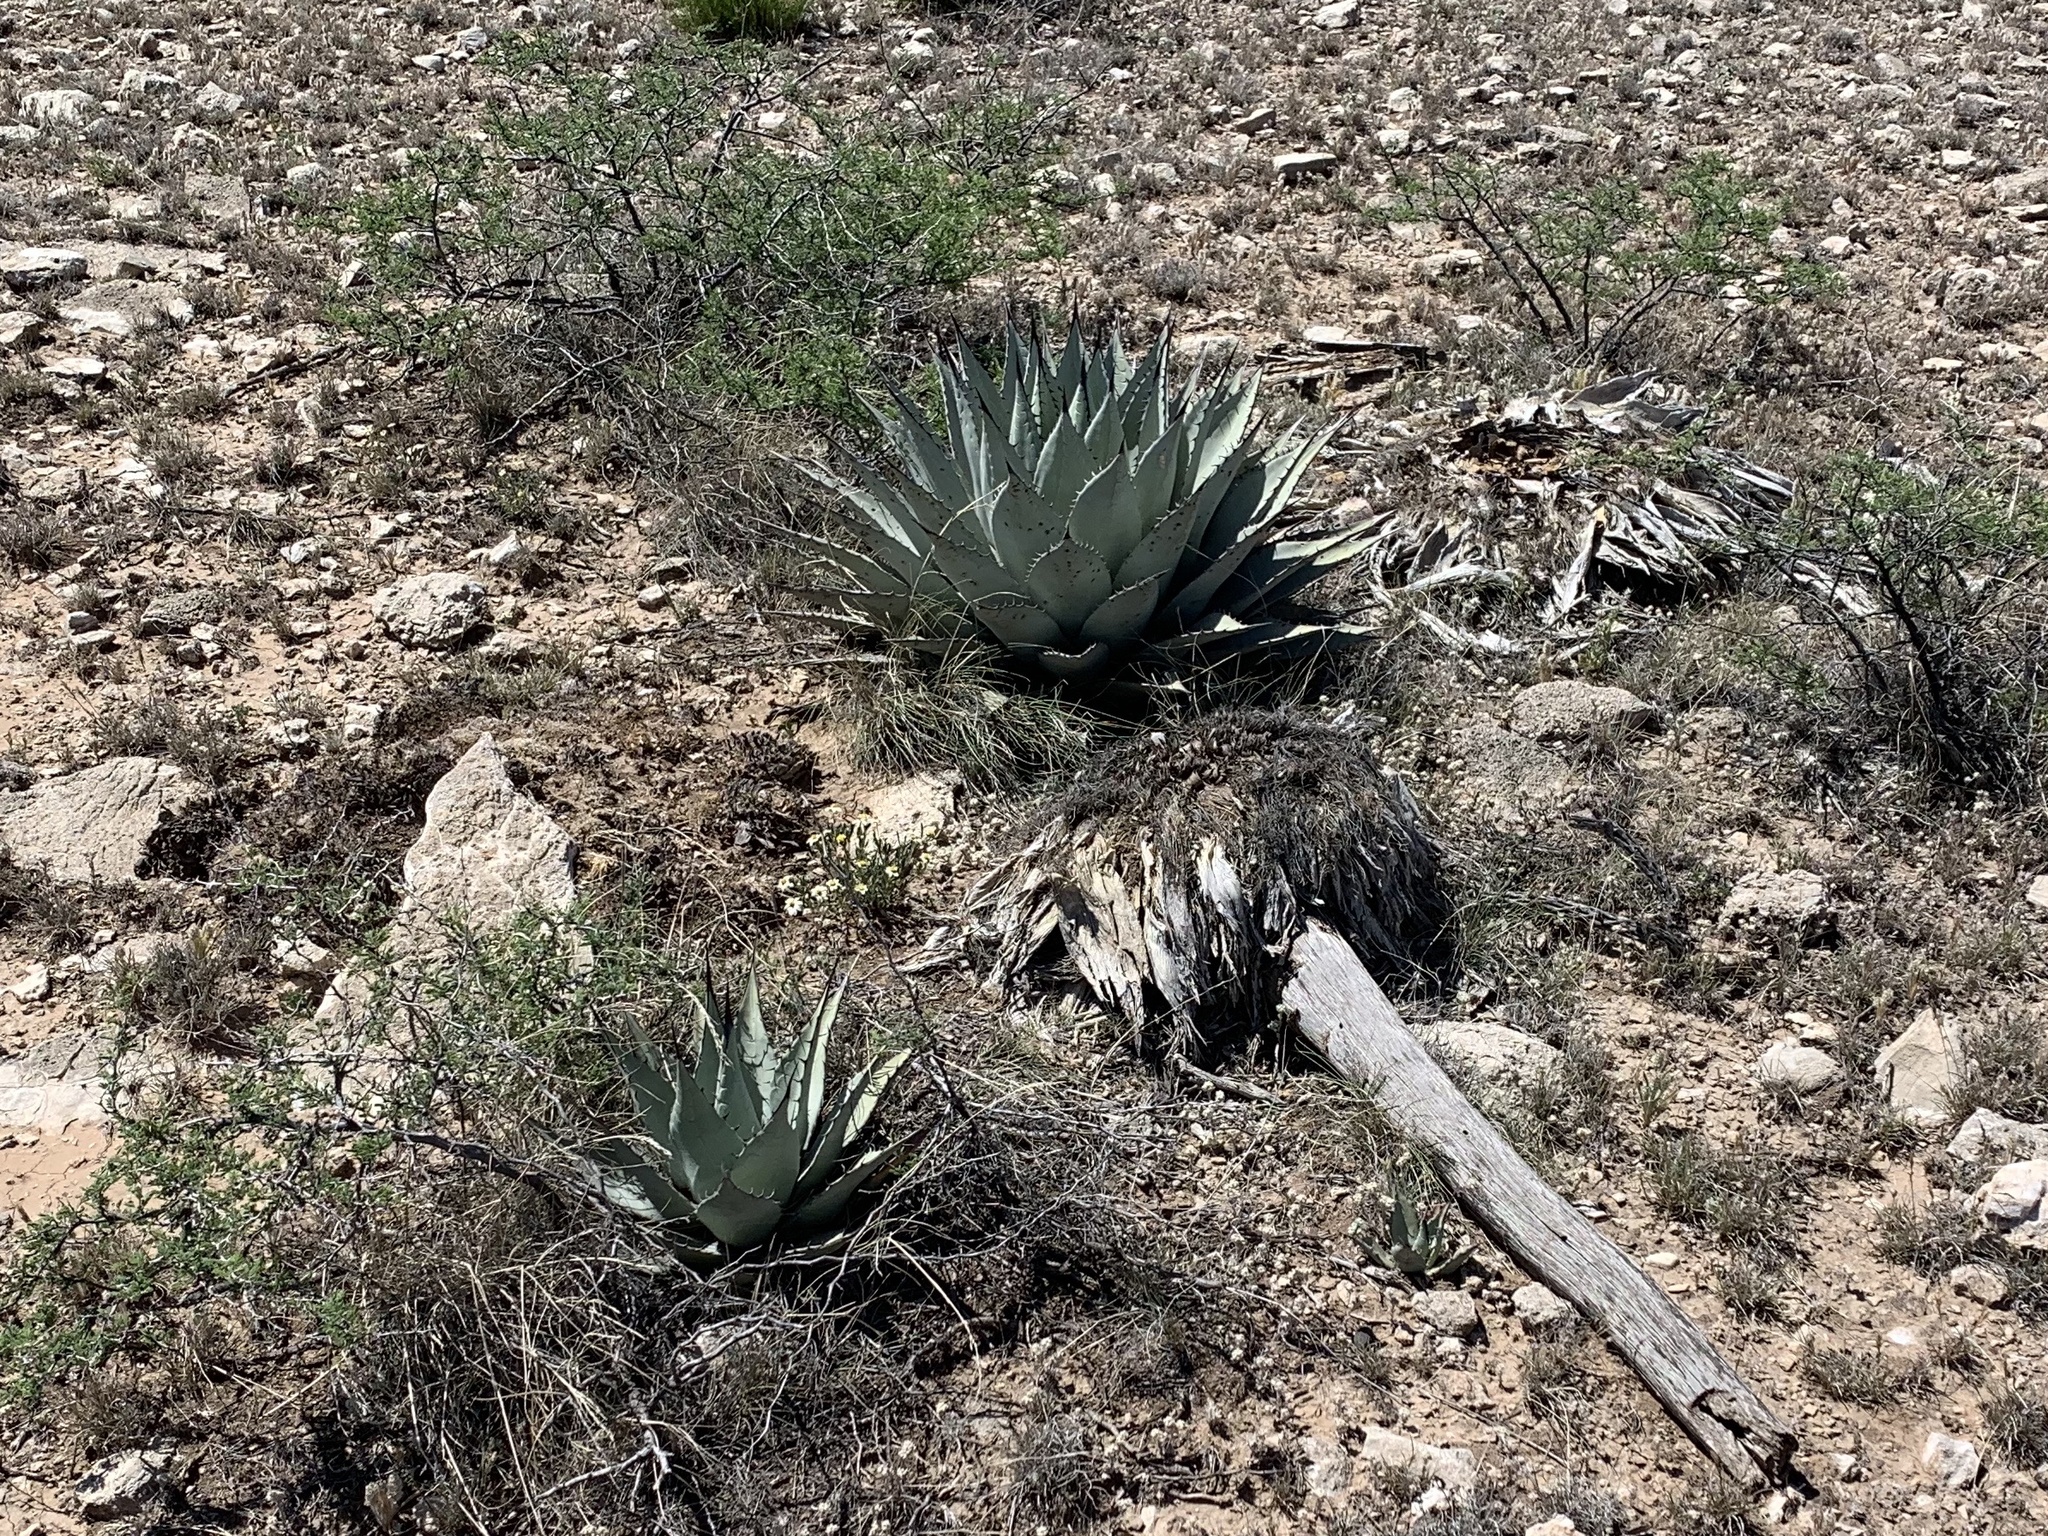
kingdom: Plantae
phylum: Tracheophyta
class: Liliopsida
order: Asparagales
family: Asparagaceae
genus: Agave
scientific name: Agave parryi
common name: Parry's agave
